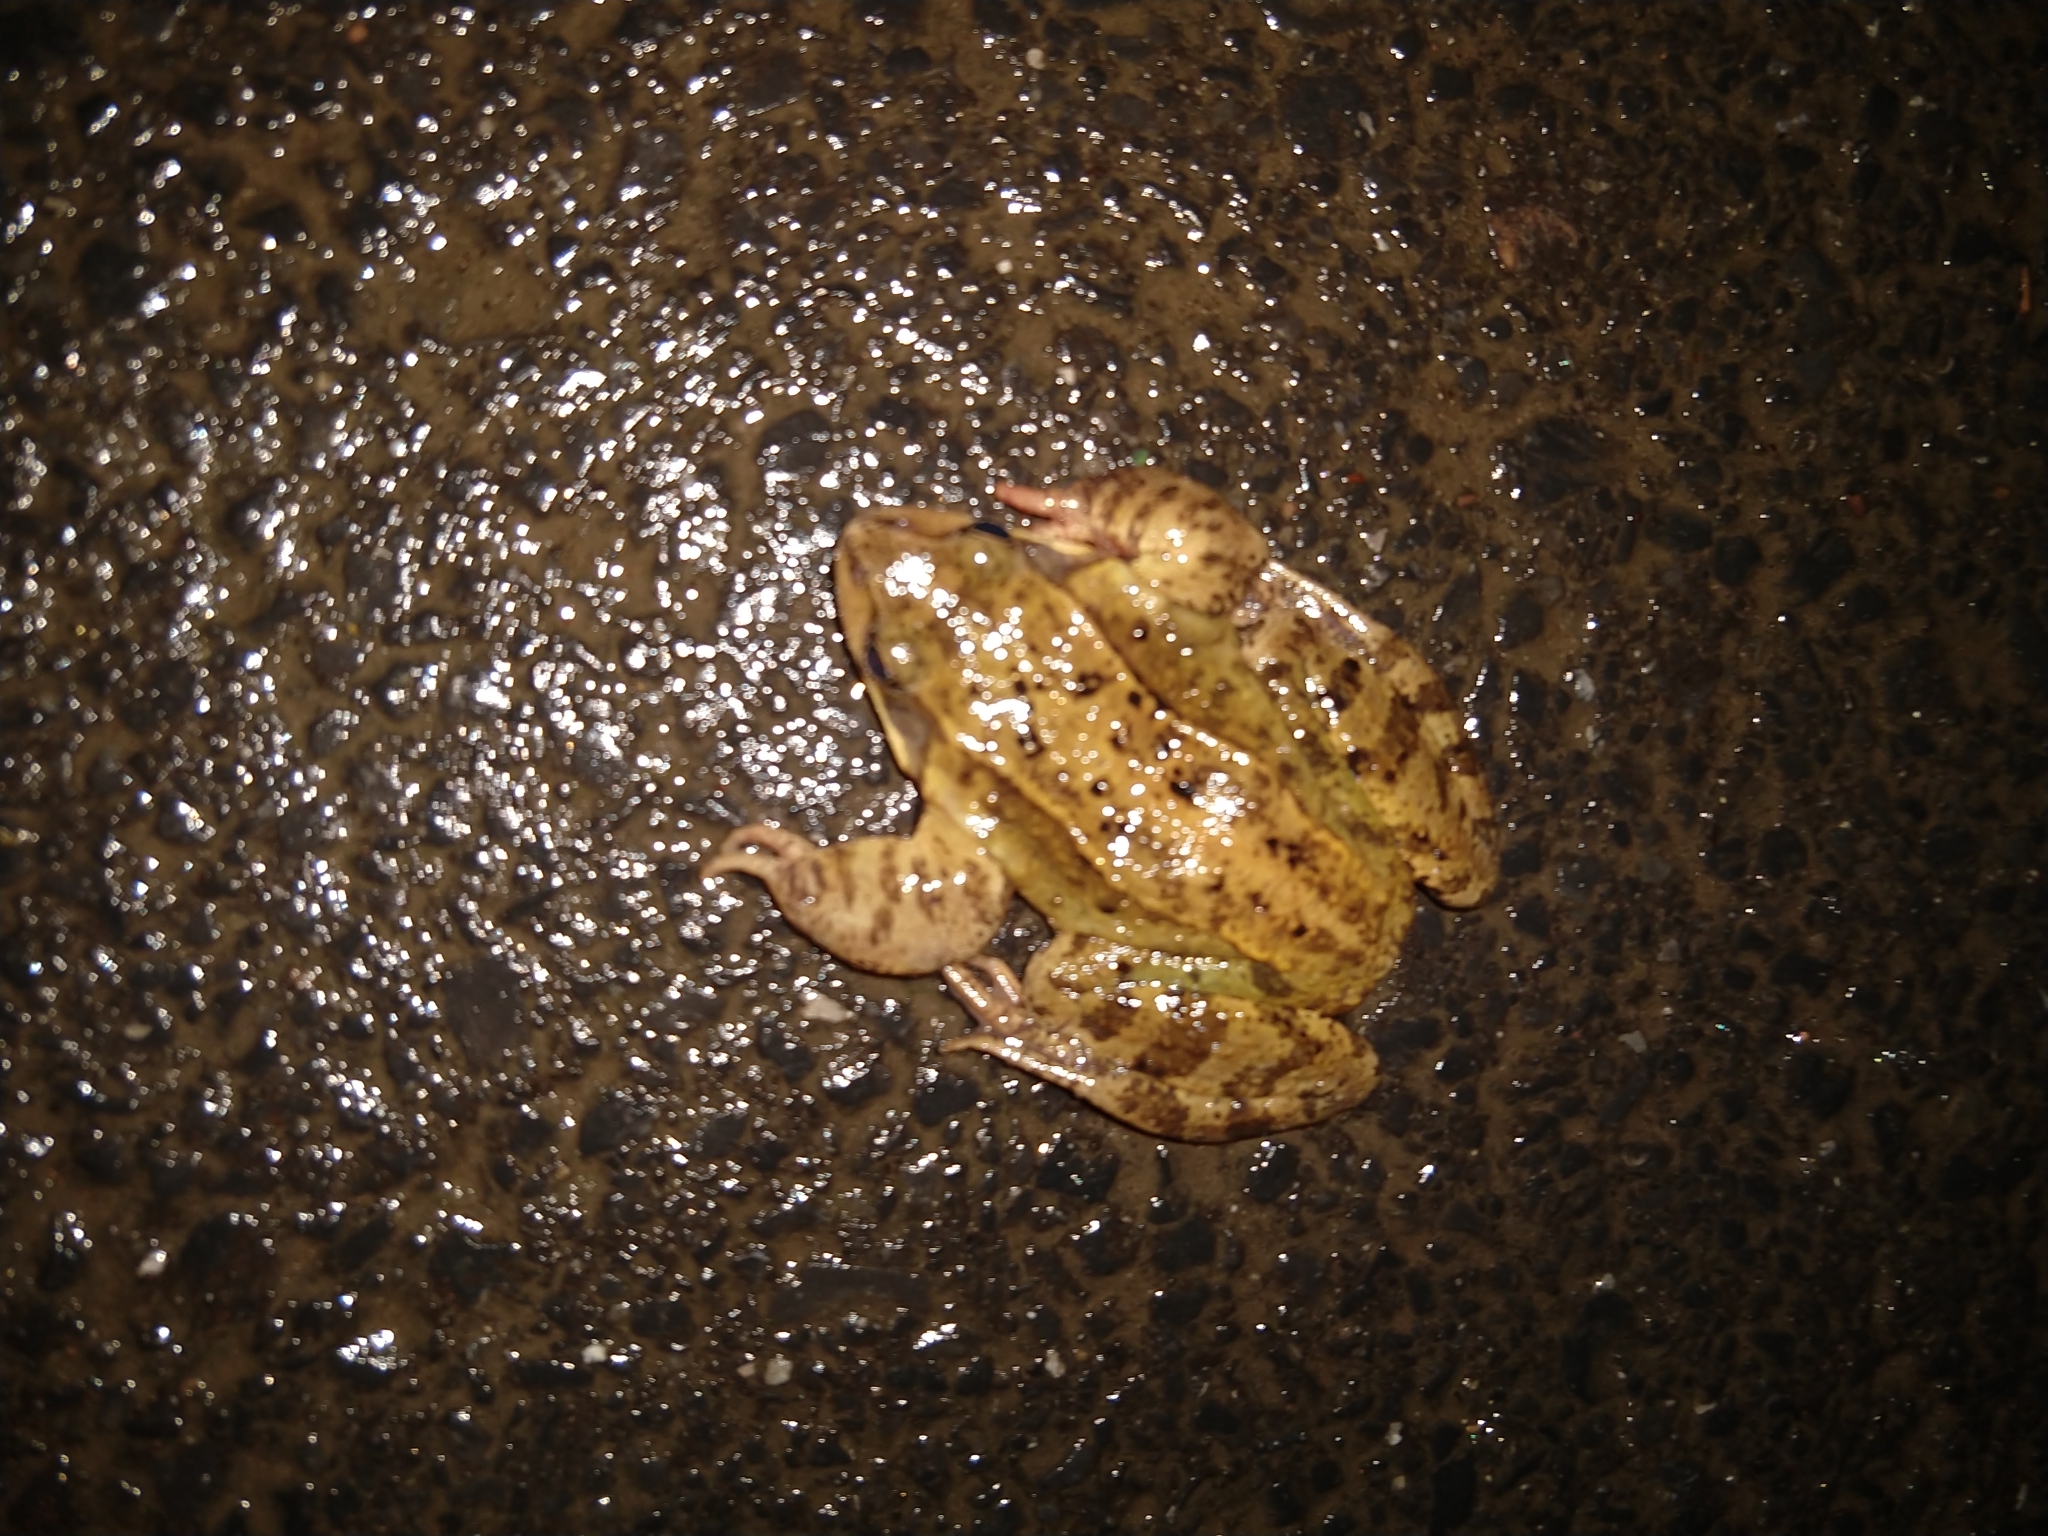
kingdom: Animalia
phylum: Chordata
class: Amphibia
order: Anura
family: Ranidae
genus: Rana
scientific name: Rana temporaria
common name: Common frog
